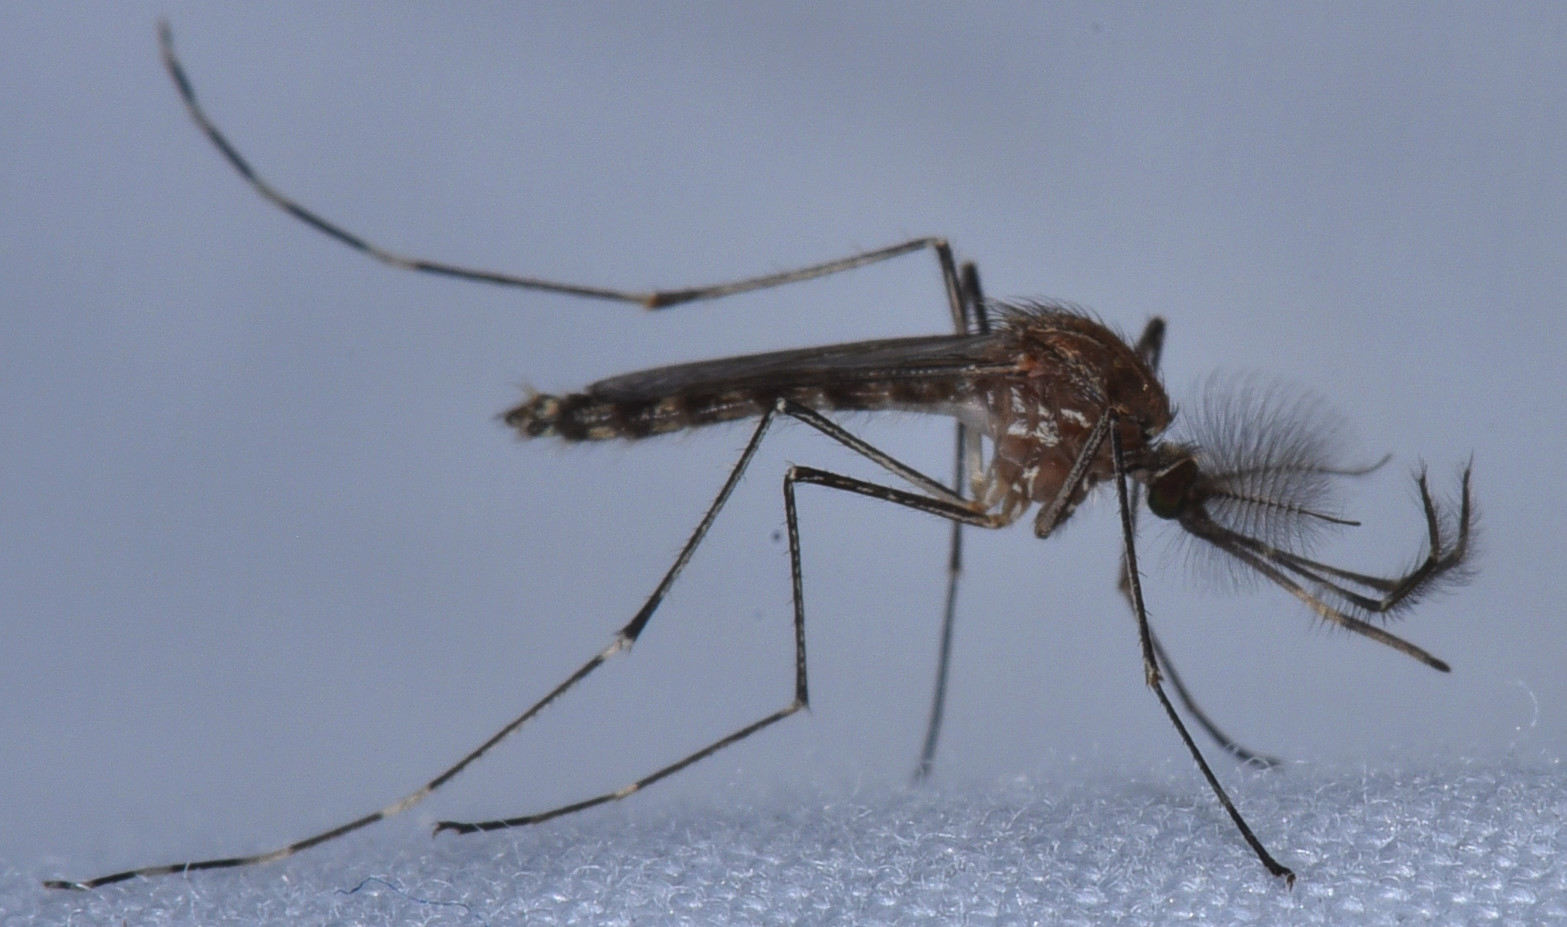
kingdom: Animalia
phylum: Arthropoda
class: Insecta
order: Diptera
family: Culicidae
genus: Culex
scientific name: Culex tarsalis
